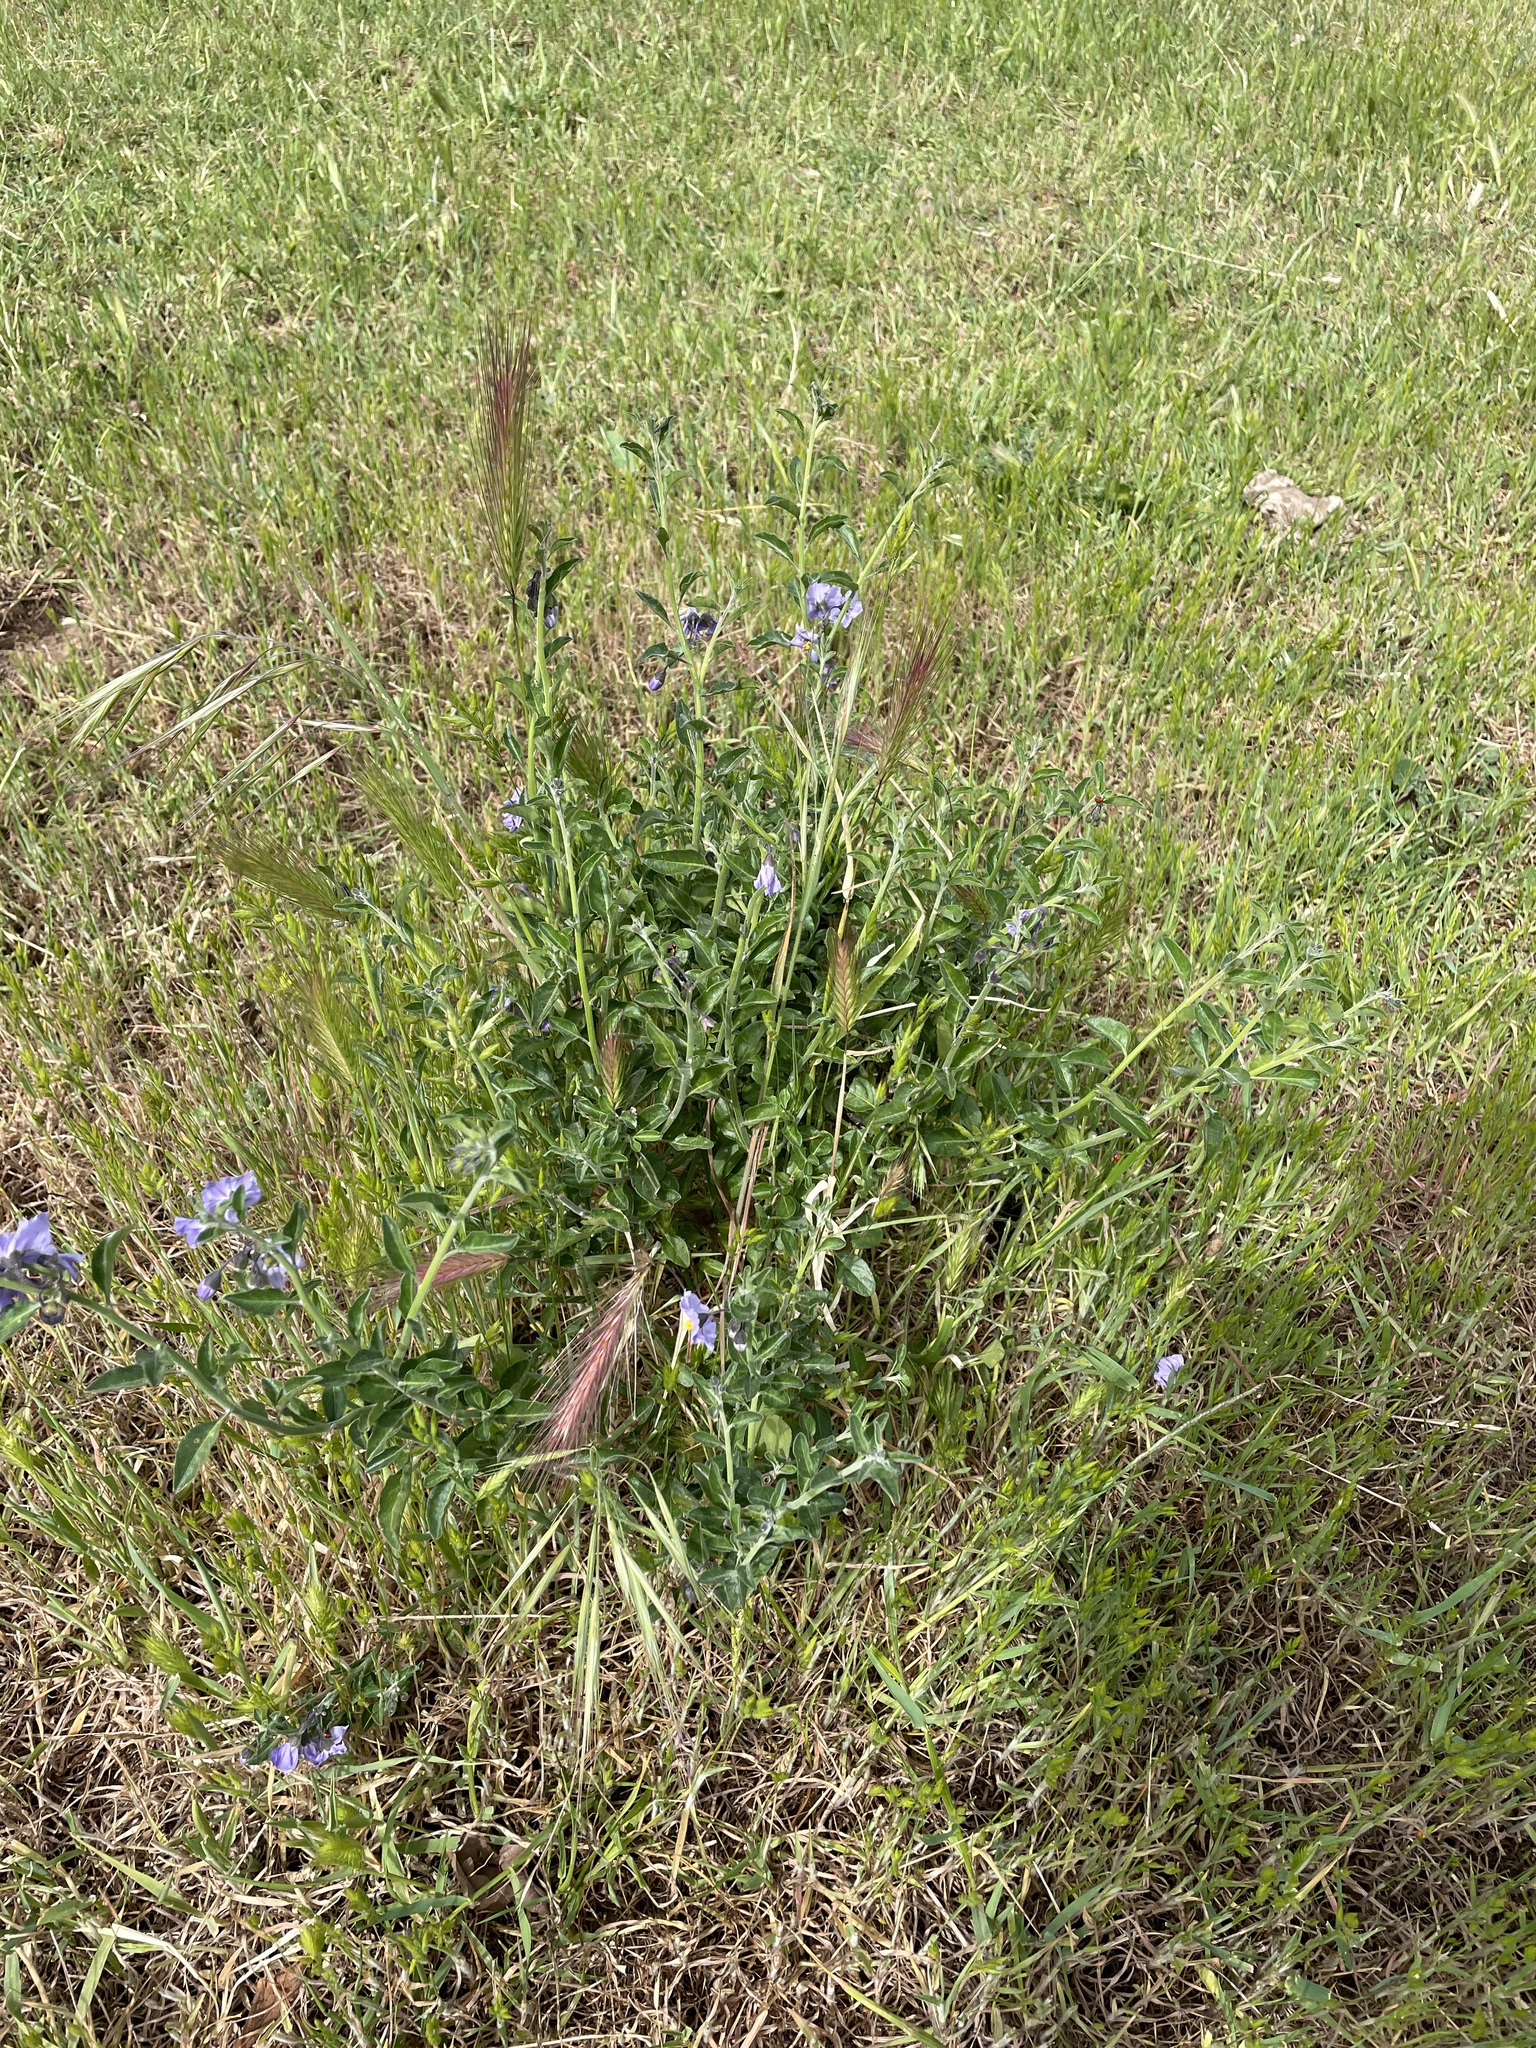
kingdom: Plantae
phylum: Tracheophyta
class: Magnoliopsida
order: Solanales
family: Solanaceae
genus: Solanum
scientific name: Solanum umbelliferum
